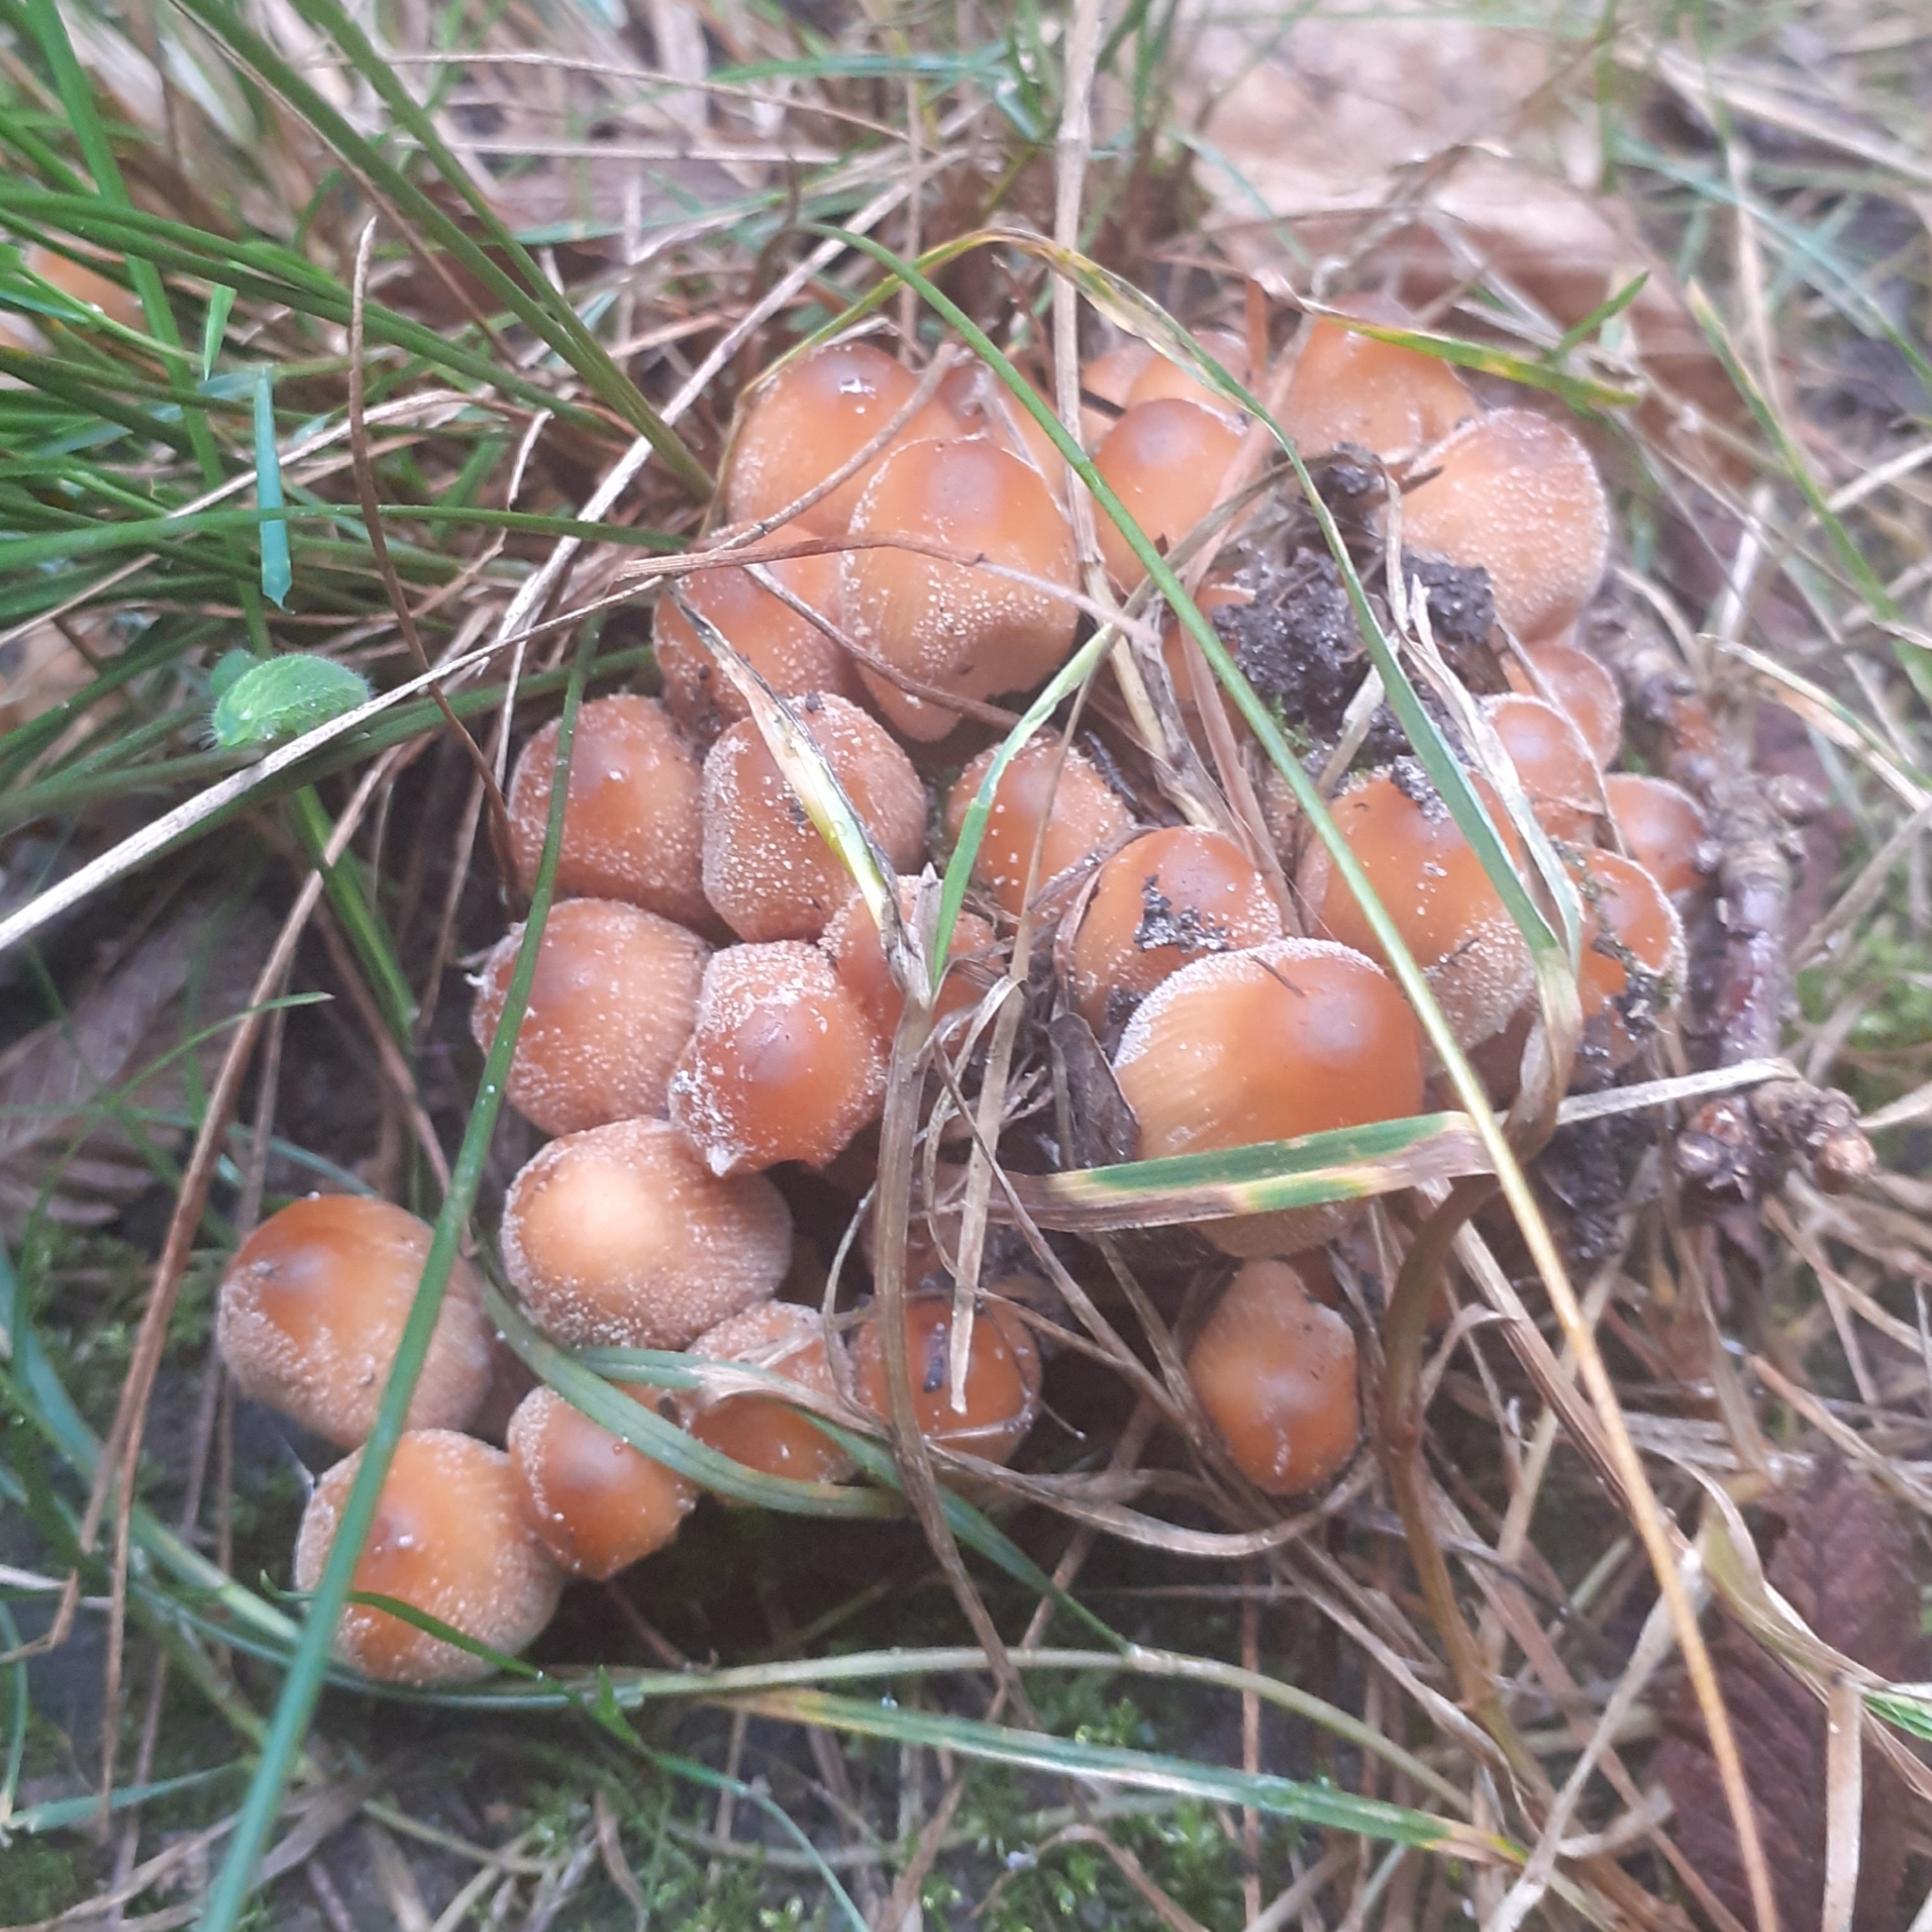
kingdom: Fungi
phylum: Basidiomycota
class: Agaricomycetes
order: Agaricales
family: Psathyrellaceae
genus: Coprinellus
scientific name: Coprinellus micaceus
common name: Glistening ink-cap
